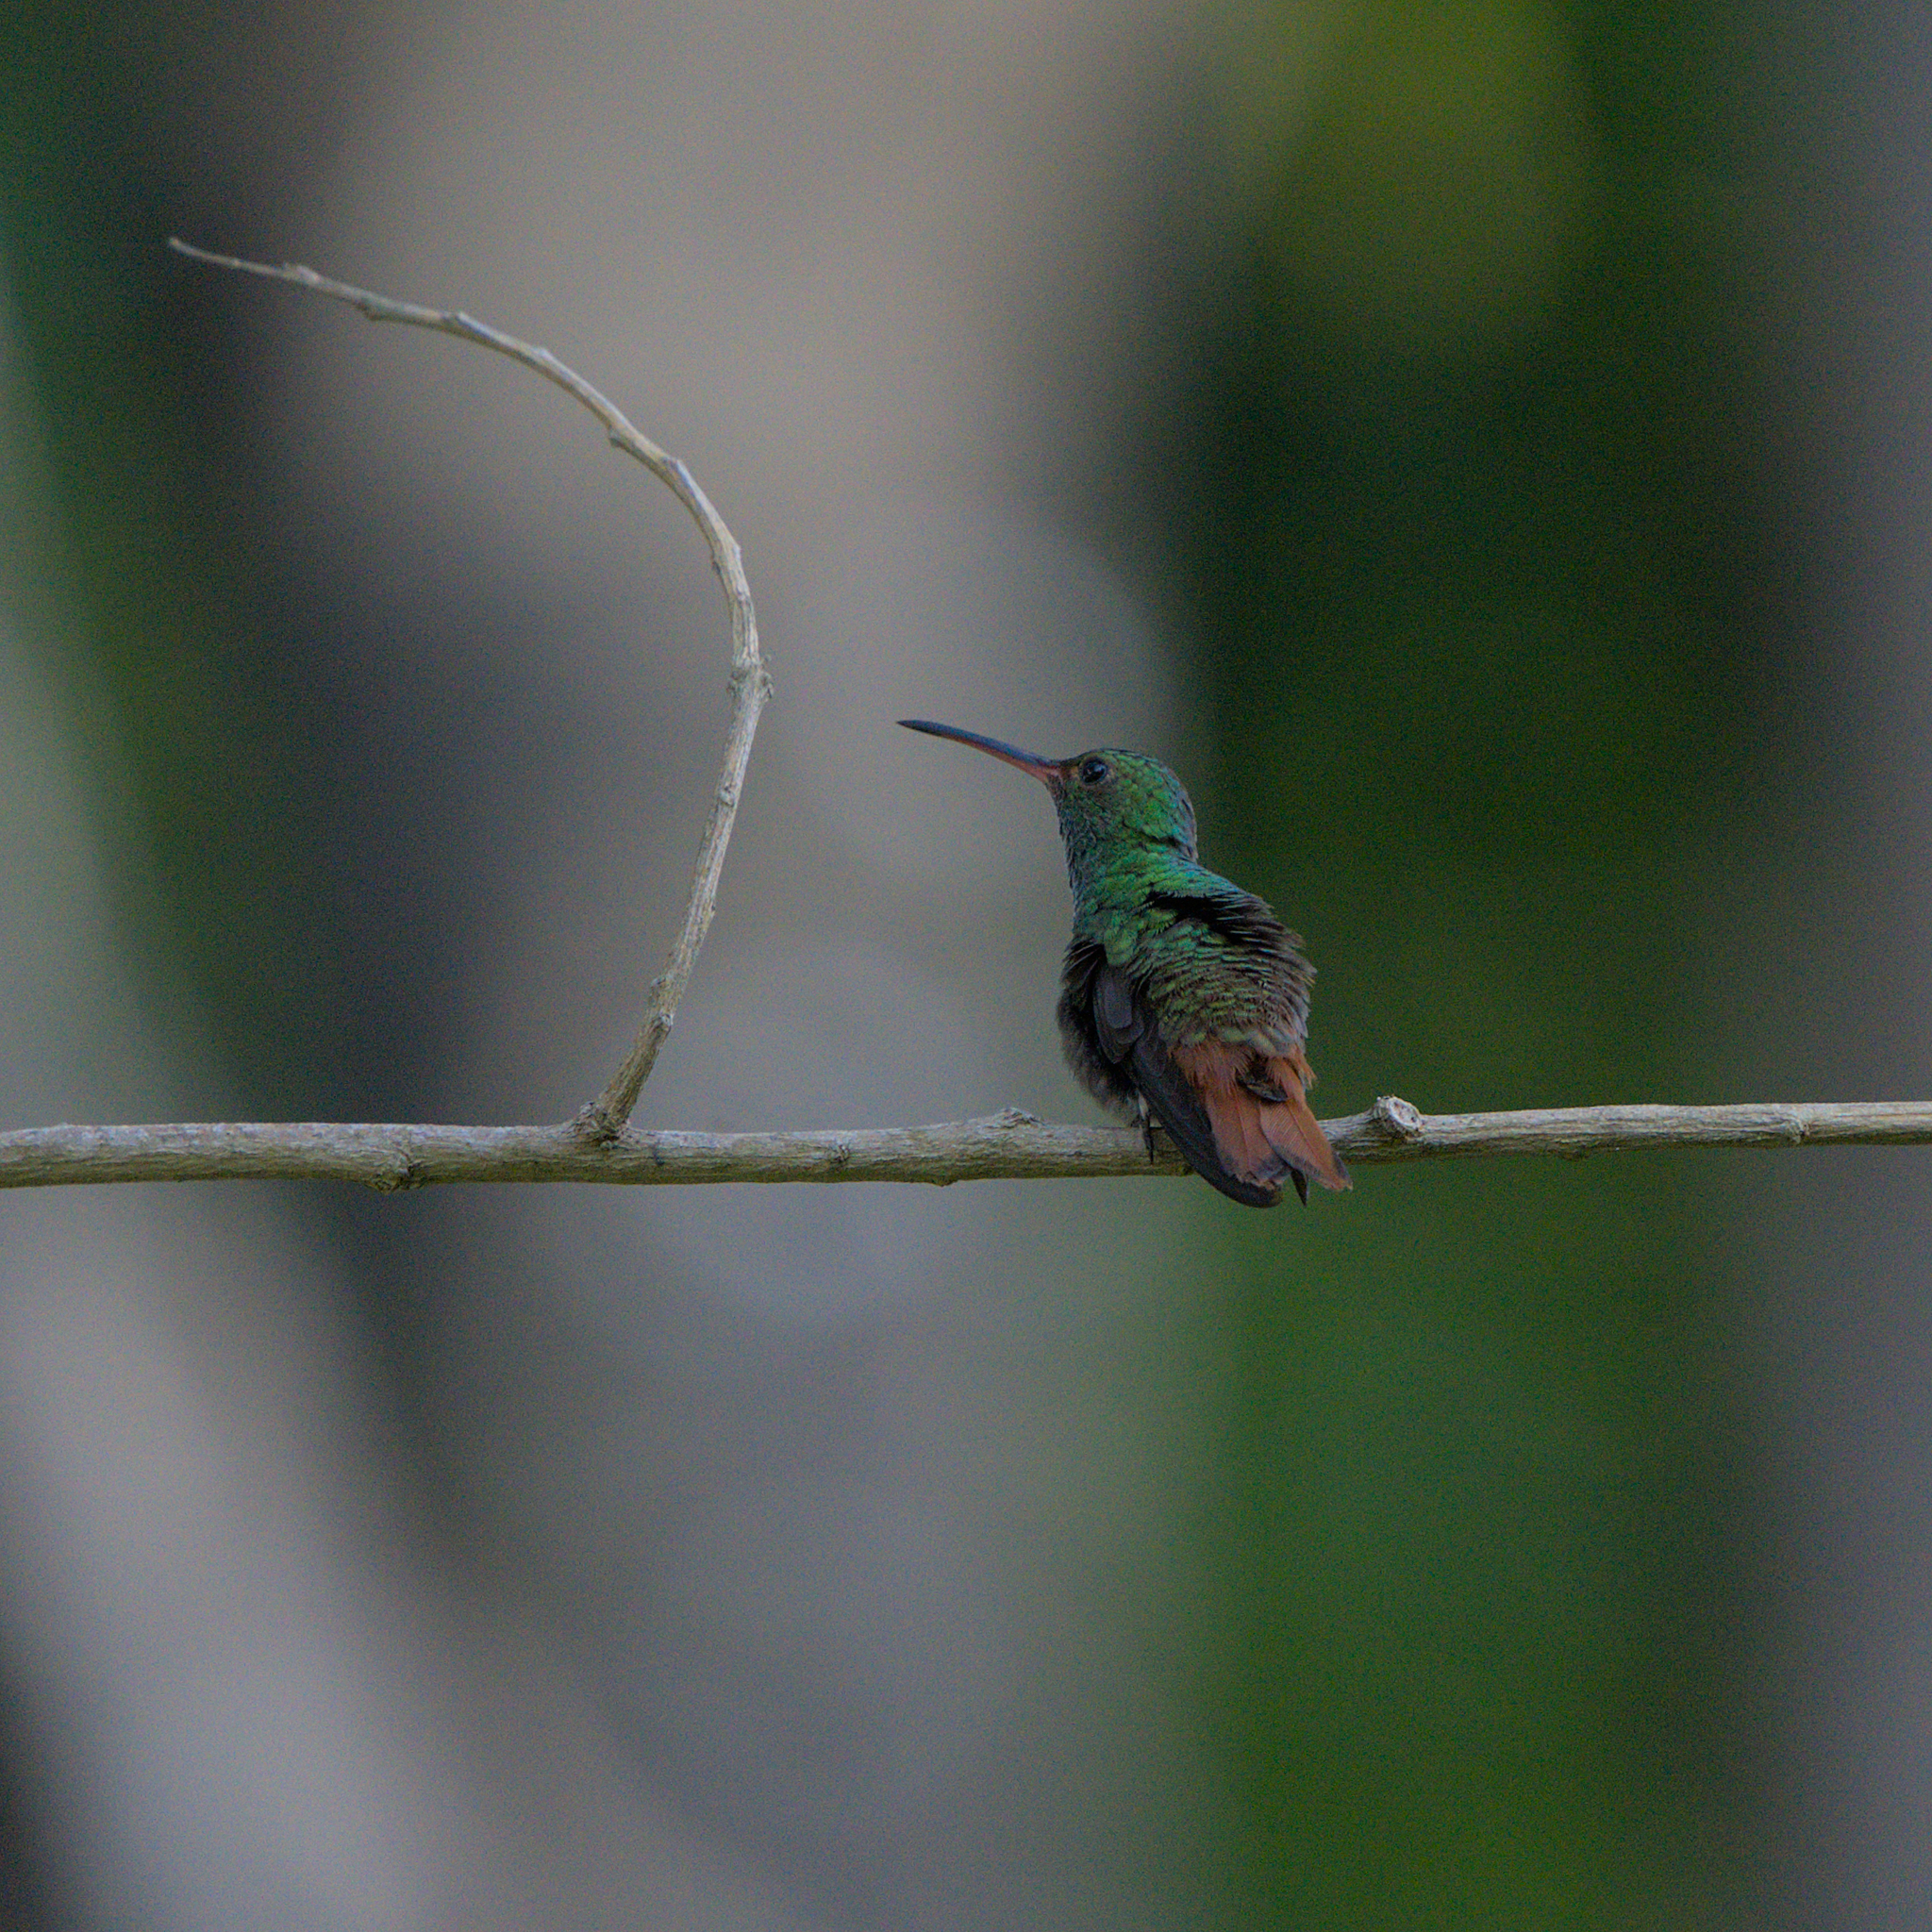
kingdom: Animalia
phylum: Chordata
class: Aves
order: Apodiformes
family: Trochilidae
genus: Amazilia
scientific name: Amazilia tzacatl
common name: Rufous-tailed hummingbird
